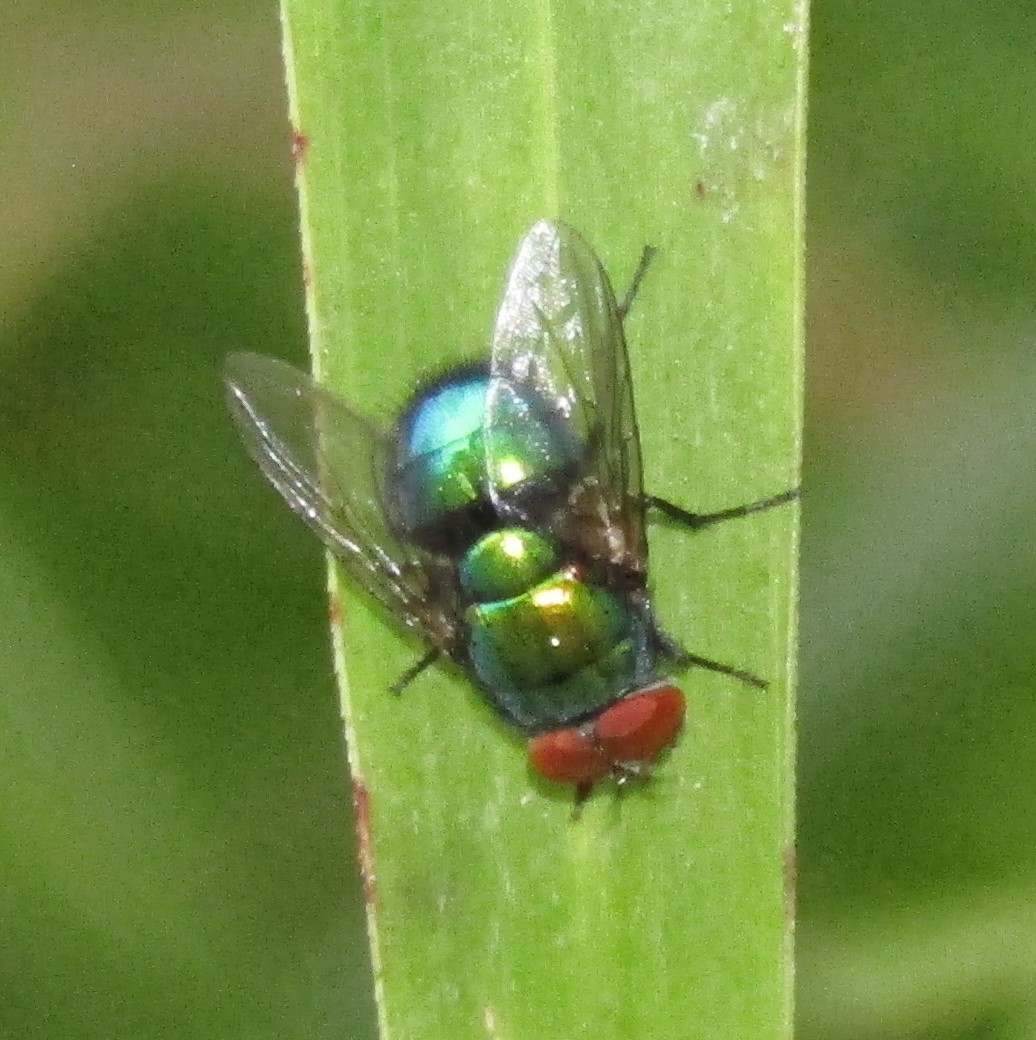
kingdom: Animalia
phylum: Arthropoda
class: Insecta
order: Diptera
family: Calliphoridae
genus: Lucilia
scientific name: Lucilia sericata
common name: Blow fly
